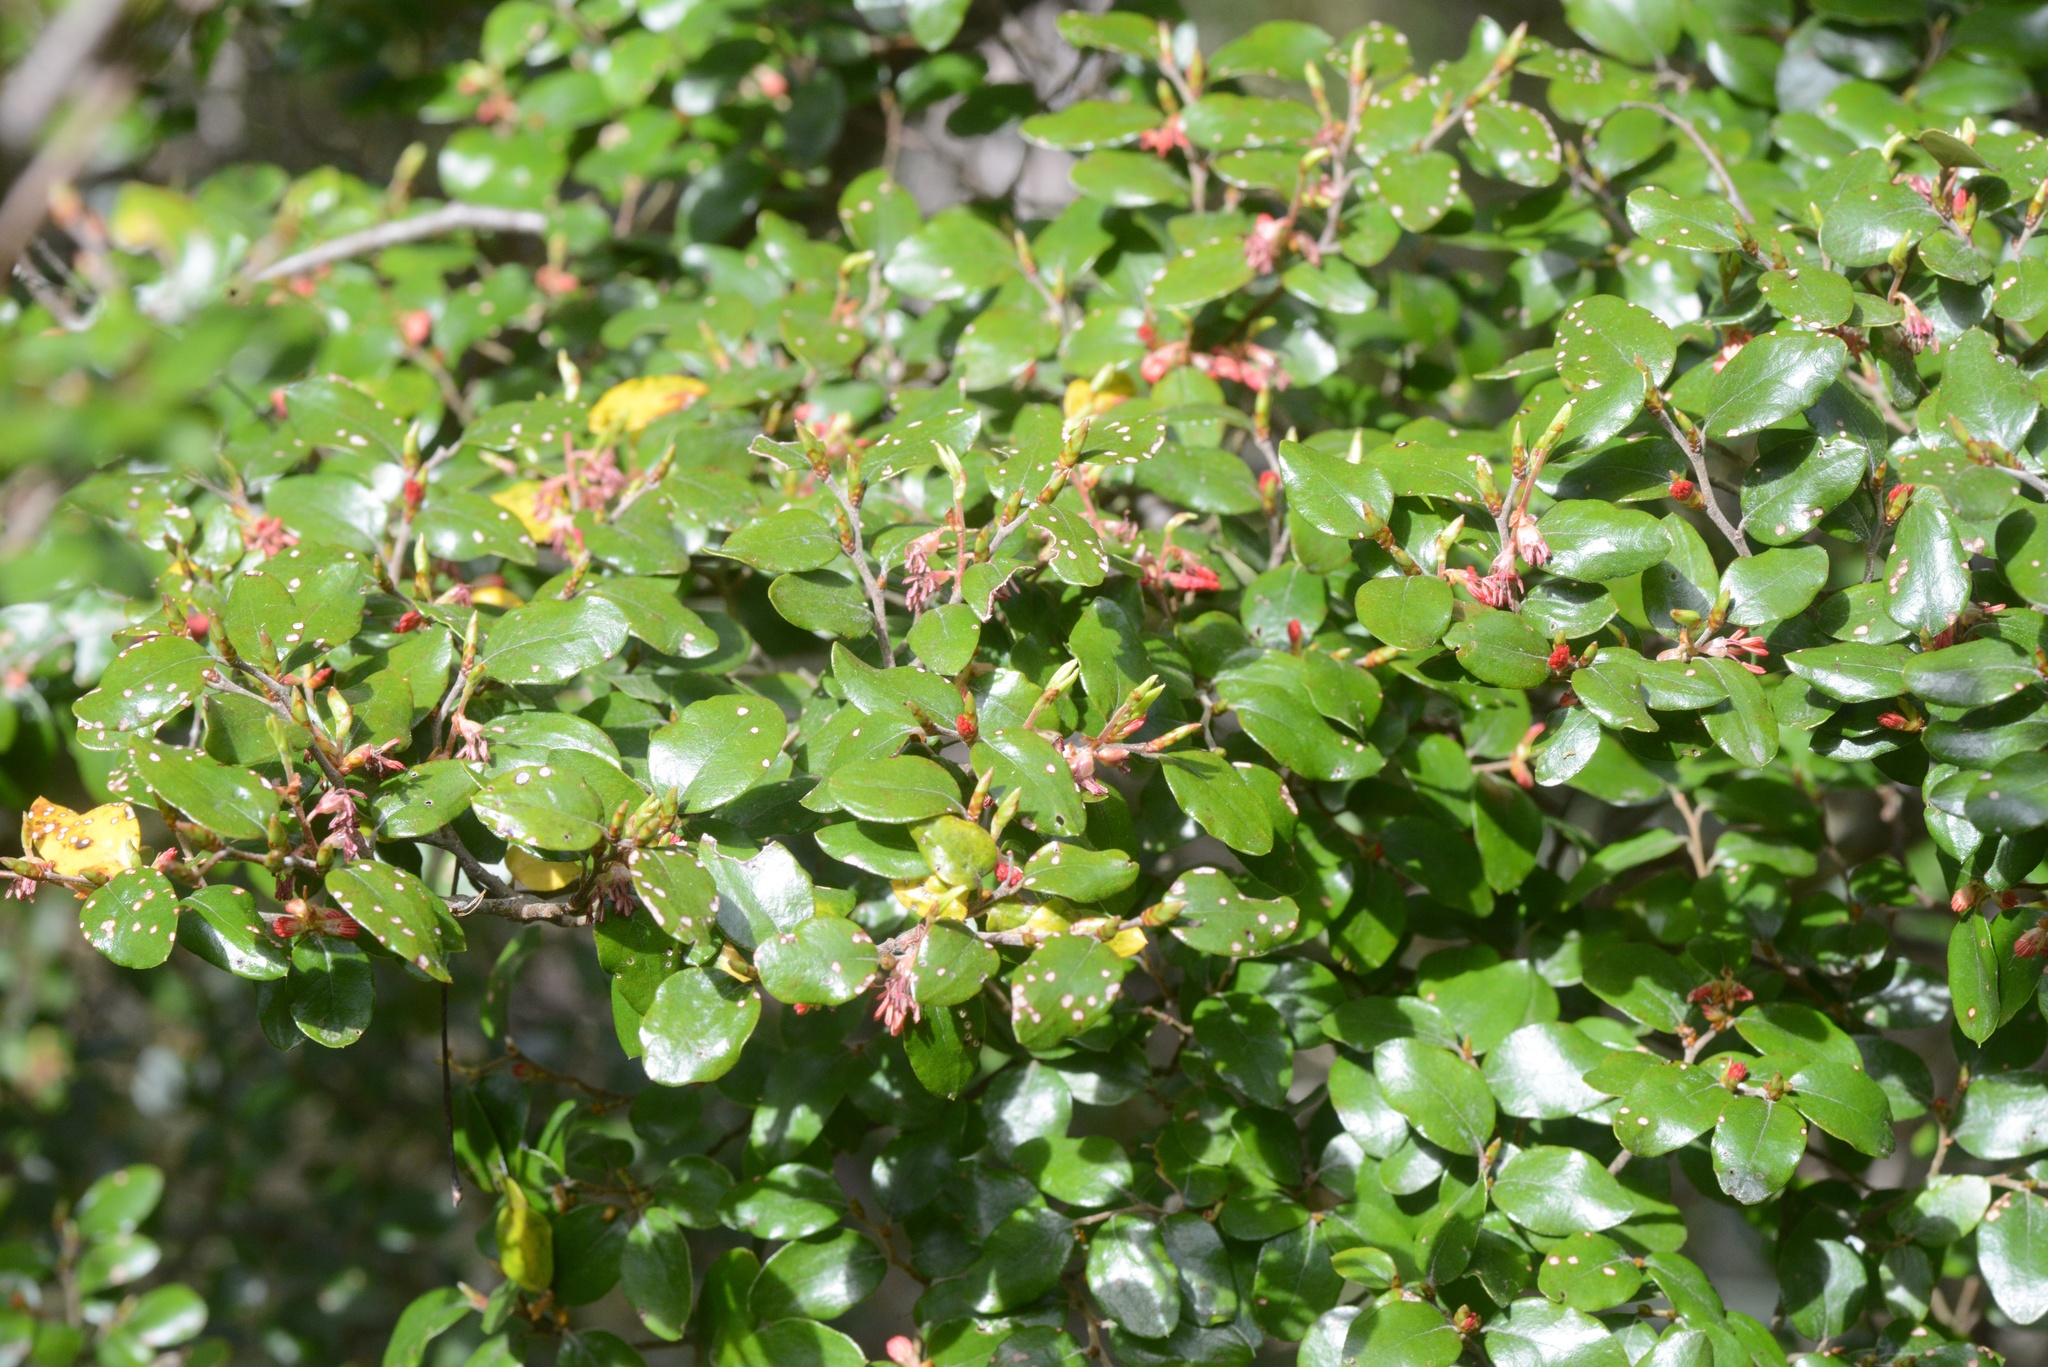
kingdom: Plantae
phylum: Tracheophyta
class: Magnoliopsida
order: Fagales
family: Nothofagaceae
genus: Nothofagus
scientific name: Nothofagus solfusca
